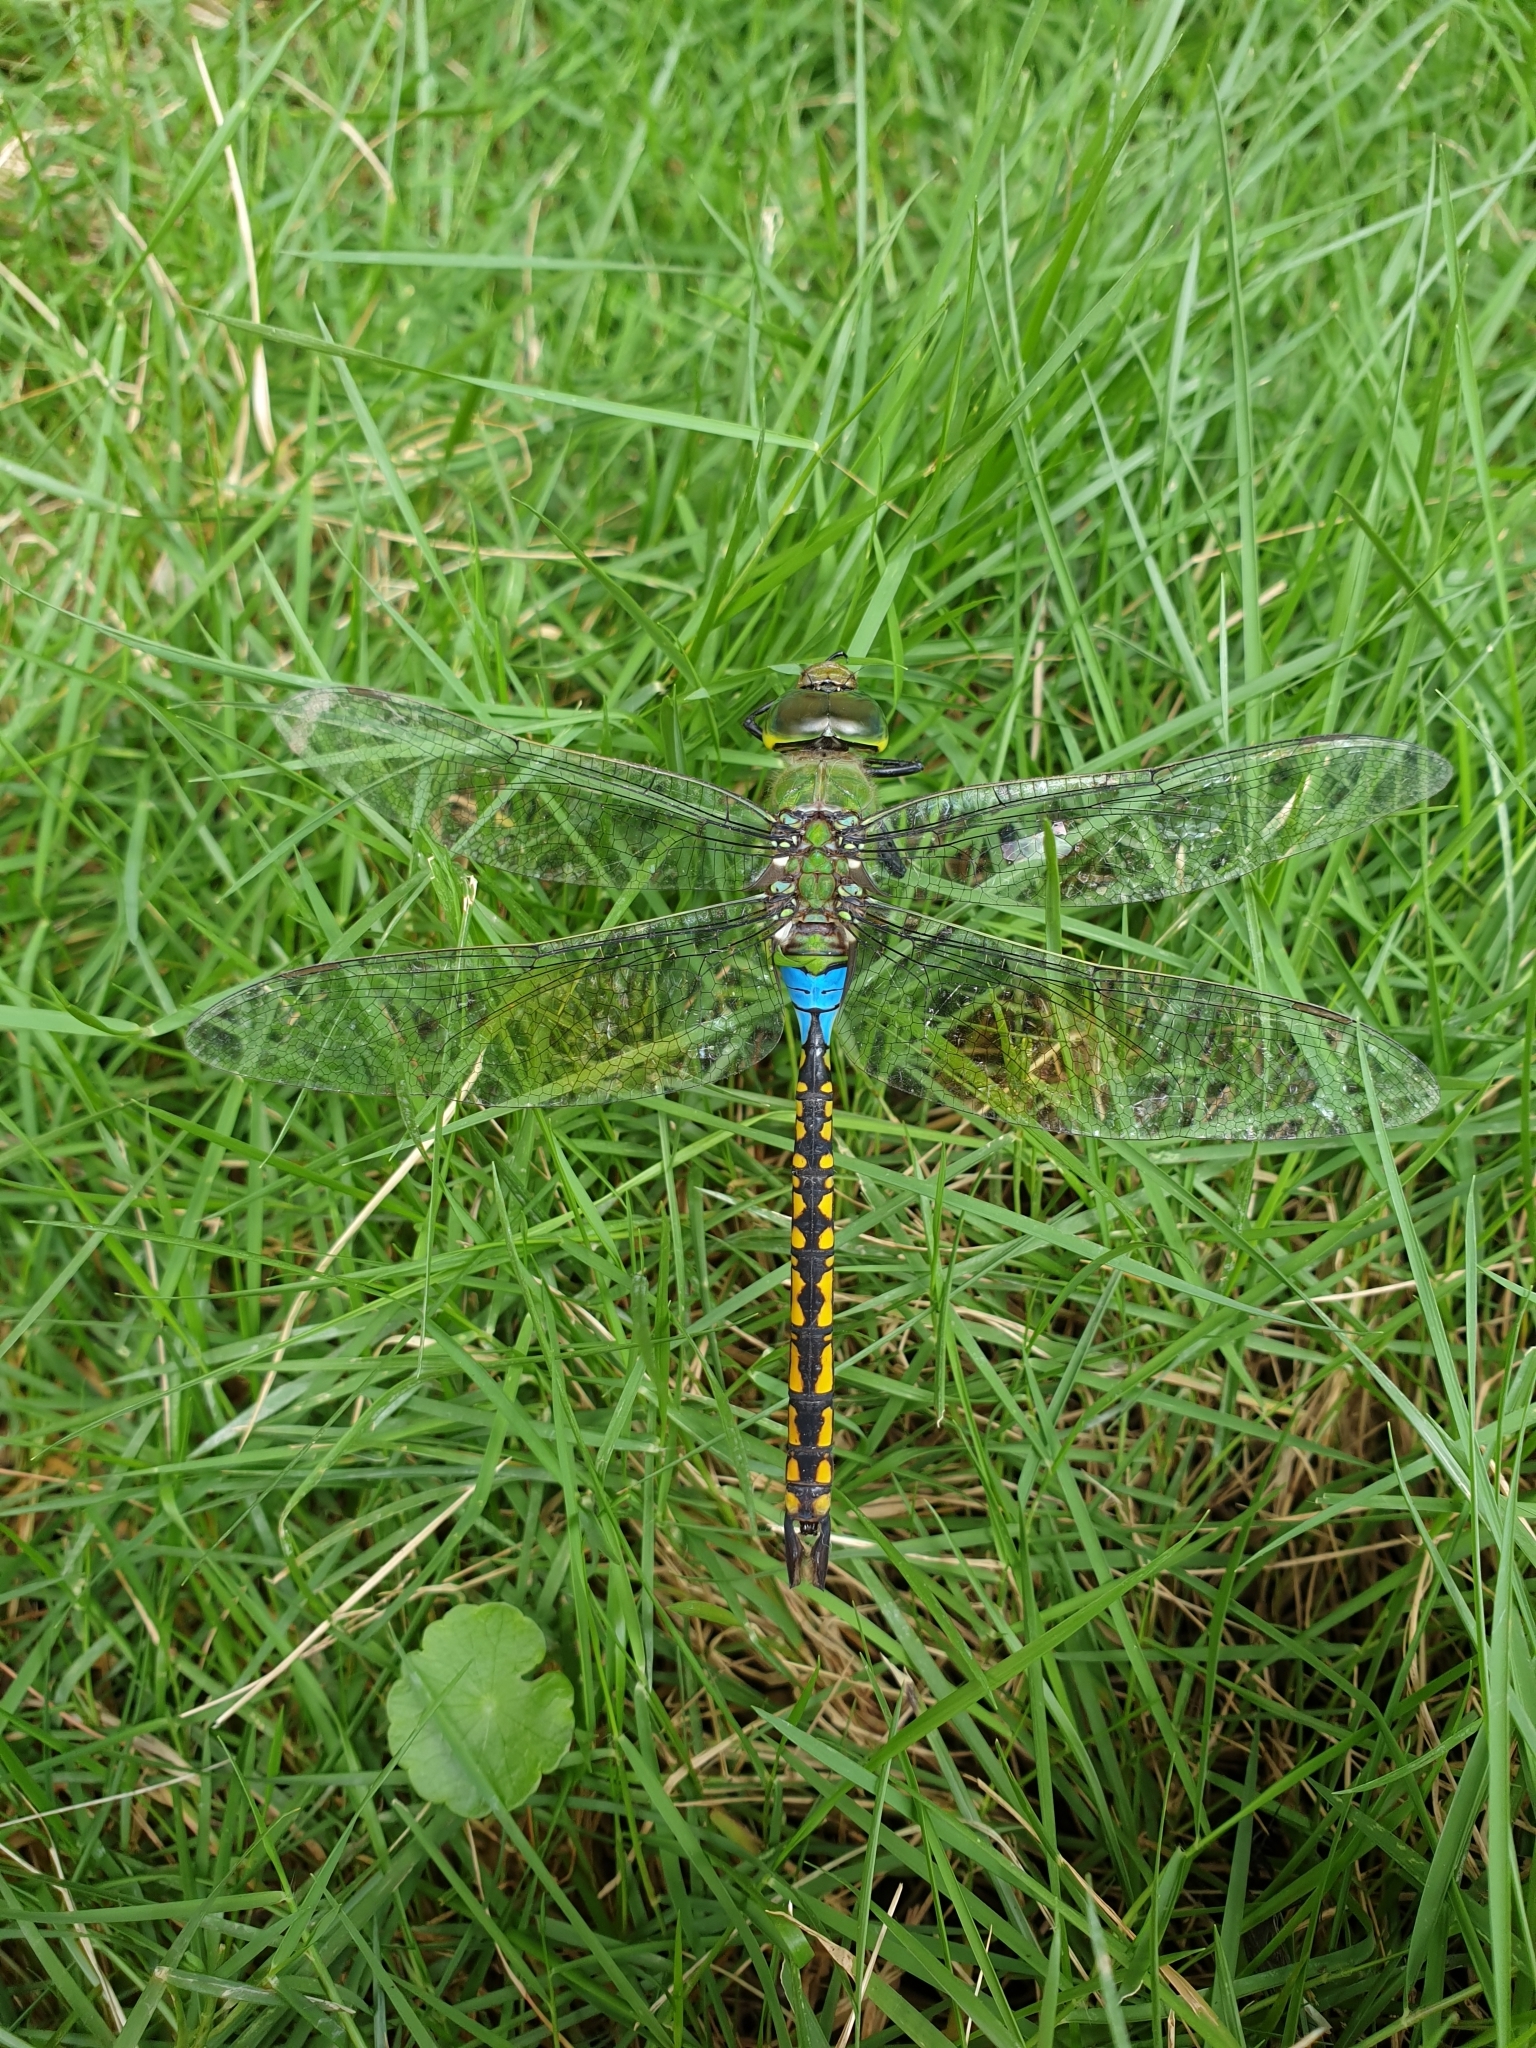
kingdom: Animalia
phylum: Arthropoda
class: Insecta
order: Odonata
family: Aeshnidae
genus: Anax
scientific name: Anax indicus
